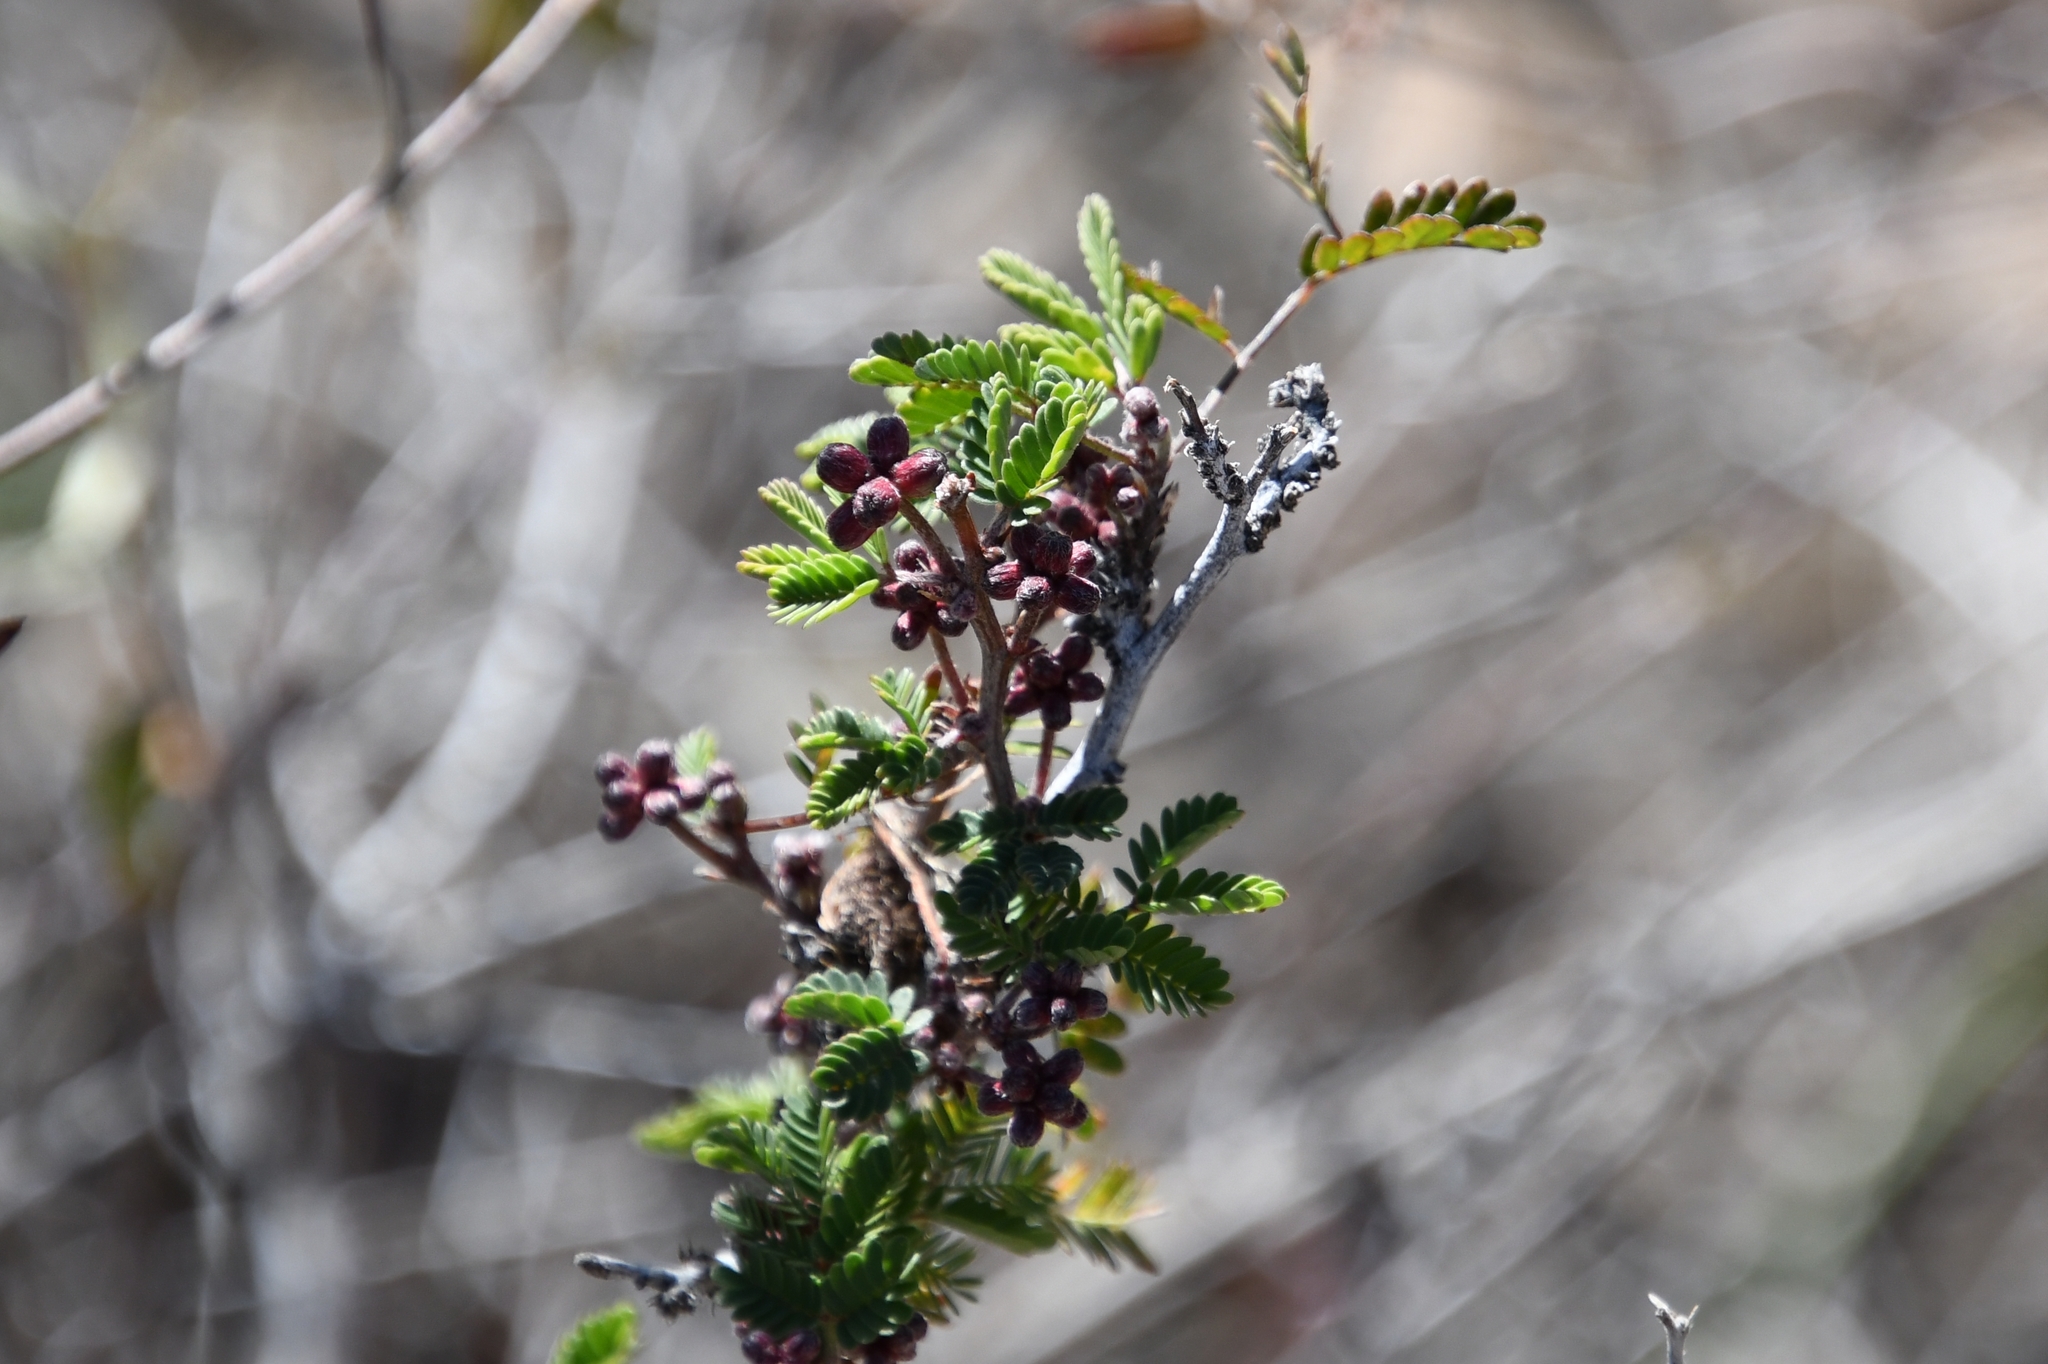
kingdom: Plantae
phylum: Tracheophyta
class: Magnoliopsida
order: Fabales
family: Fabaceae
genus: Calliandra
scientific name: Calliandra eriophylla
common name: Fairy-duster
